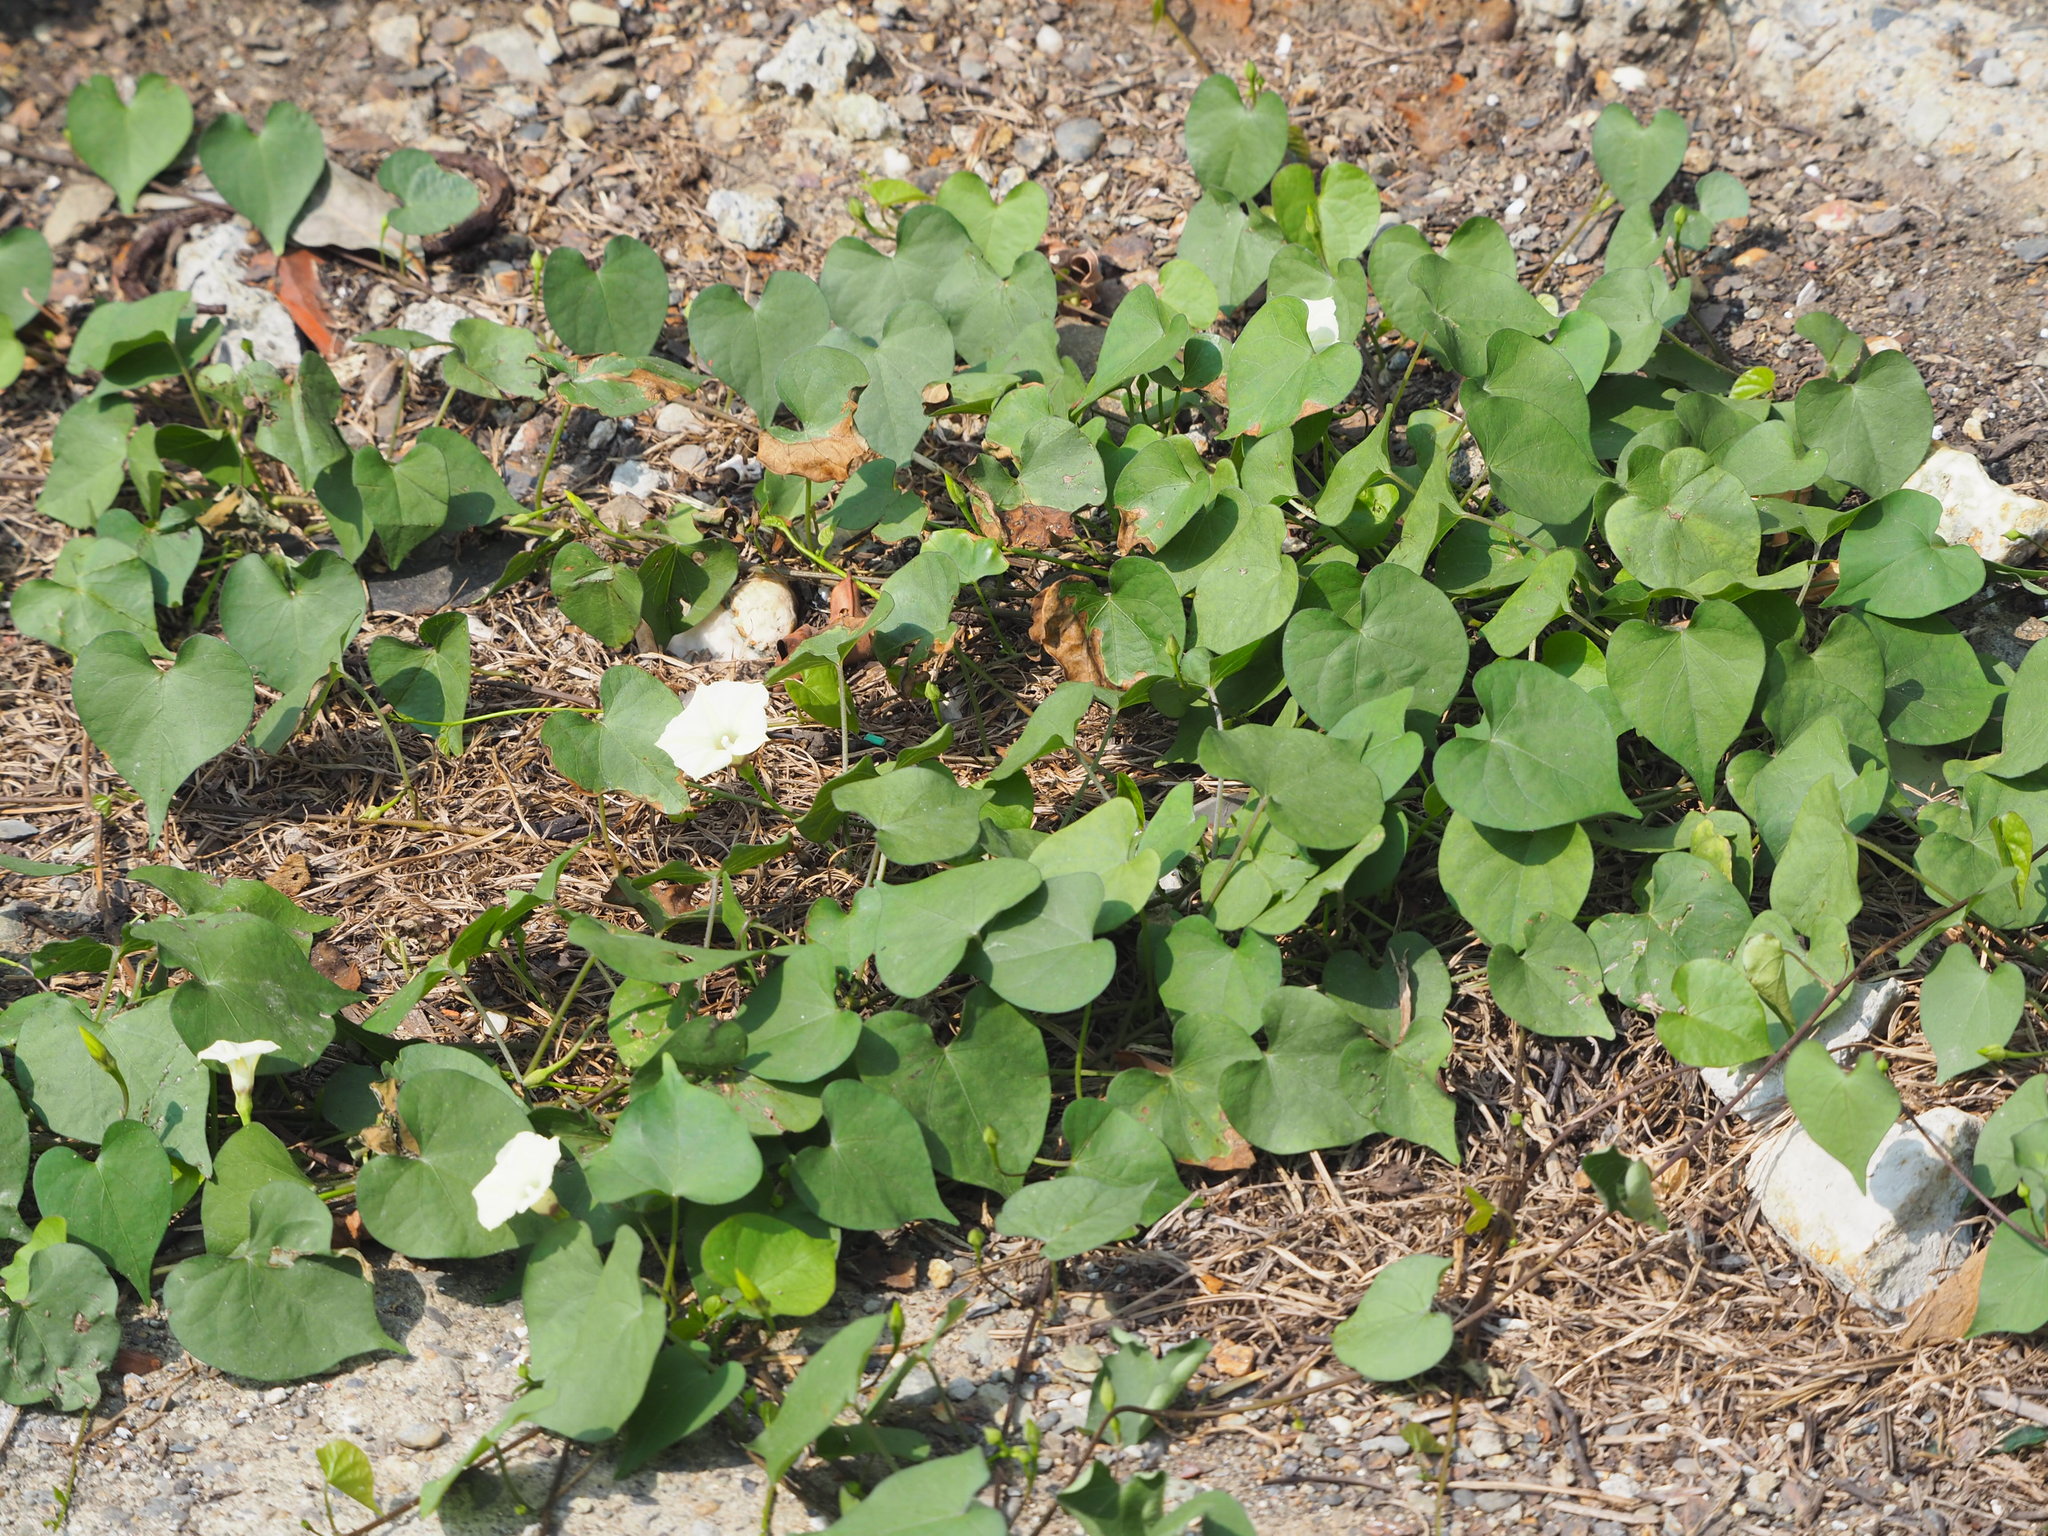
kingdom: Plantae
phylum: Tracheophyta
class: Magnoliopsida
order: Solanales
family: Convolvulaceae
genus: Ipomoea
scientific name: Ipomoea obscura
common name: Obscure morning-glory
